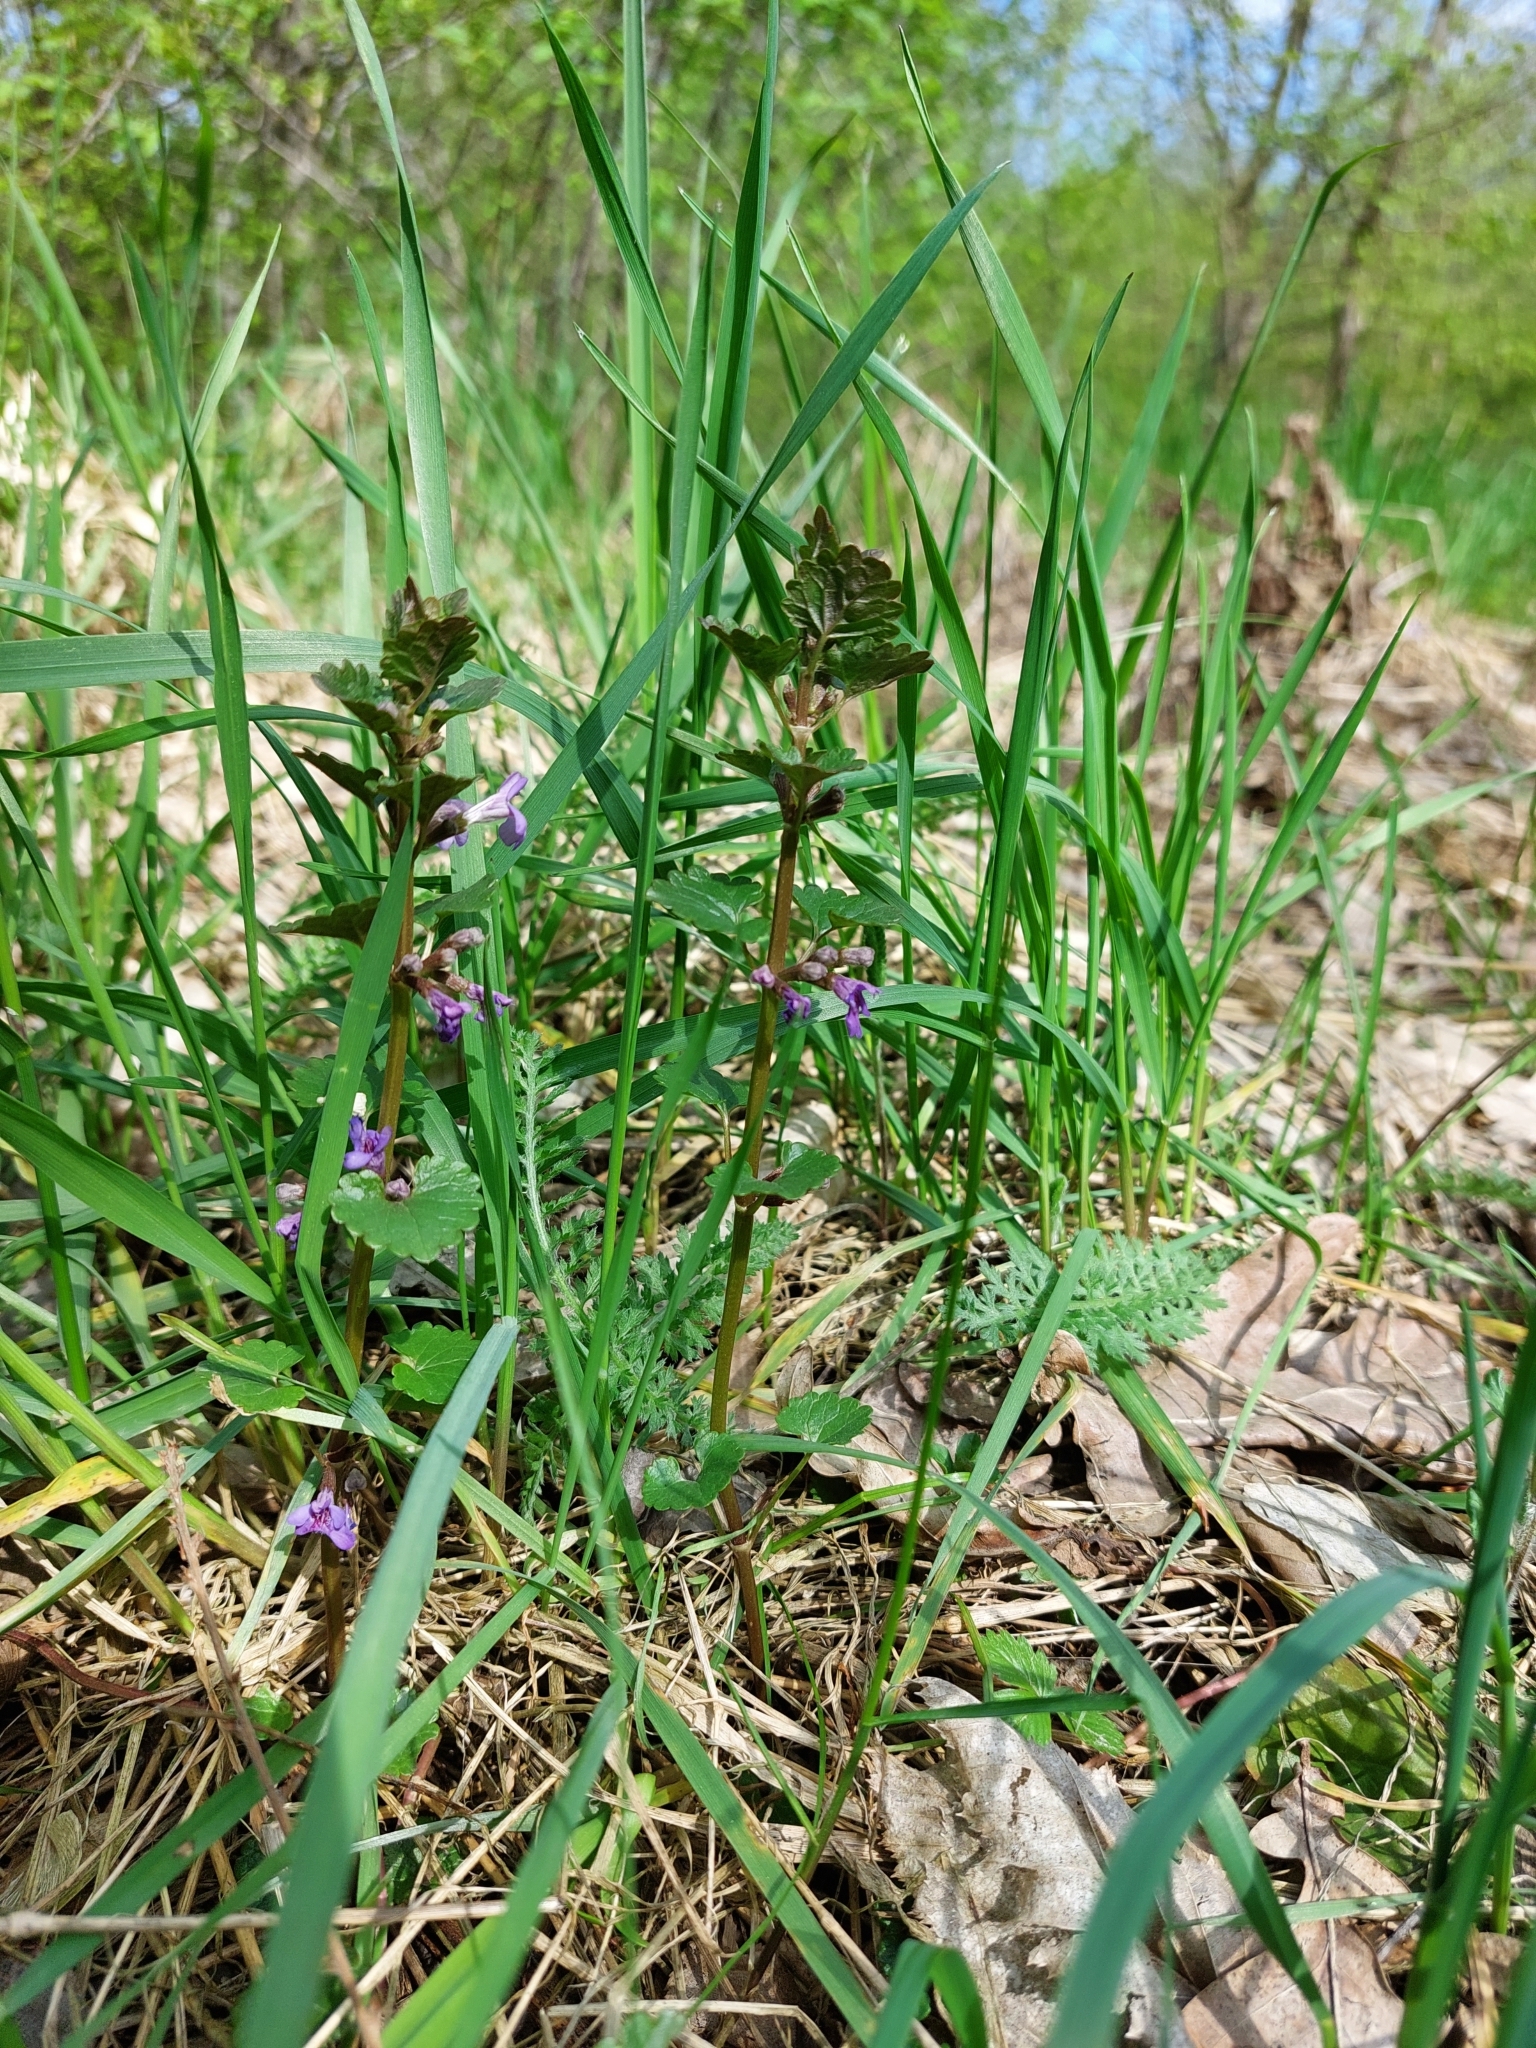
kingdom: Plantae
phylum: Tracheophyta
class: Magnoliopsida
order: Lamiales
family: Lamiaceae
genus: Glechoma
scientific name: Glechoma hederacea
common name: Ground ivy
